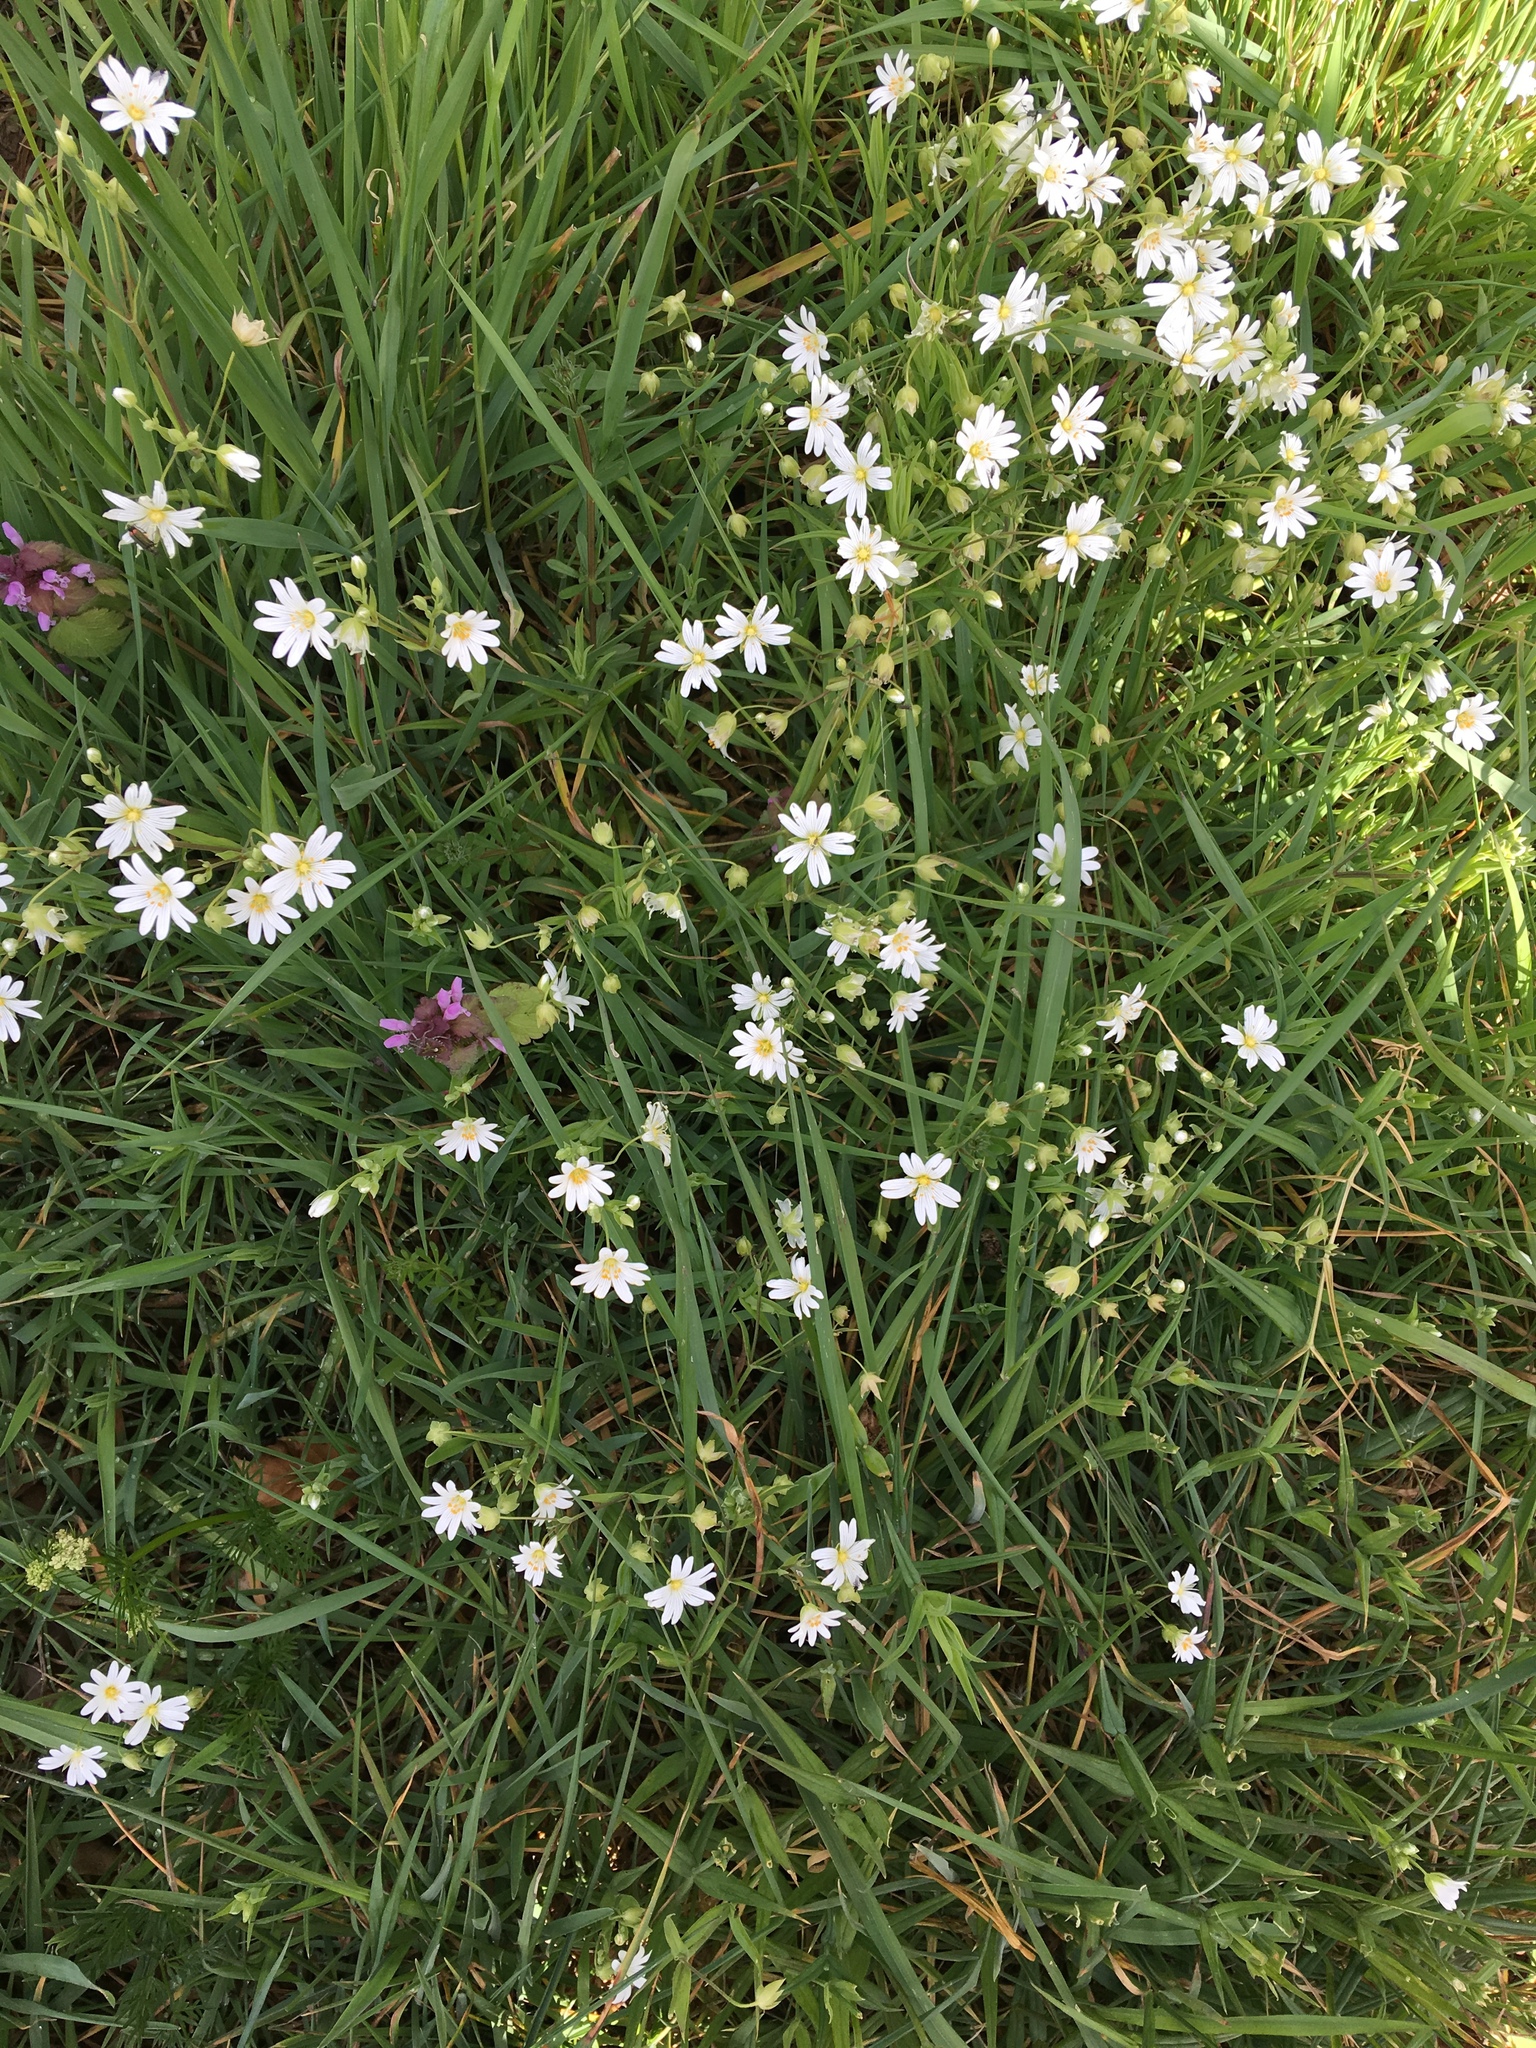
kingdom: Plantae
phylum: Tracheophyta
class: Magnoliopsida
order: Caryophyllales
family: Caryophyllaceae
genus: Rabelera
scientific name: Rabelera holostea
